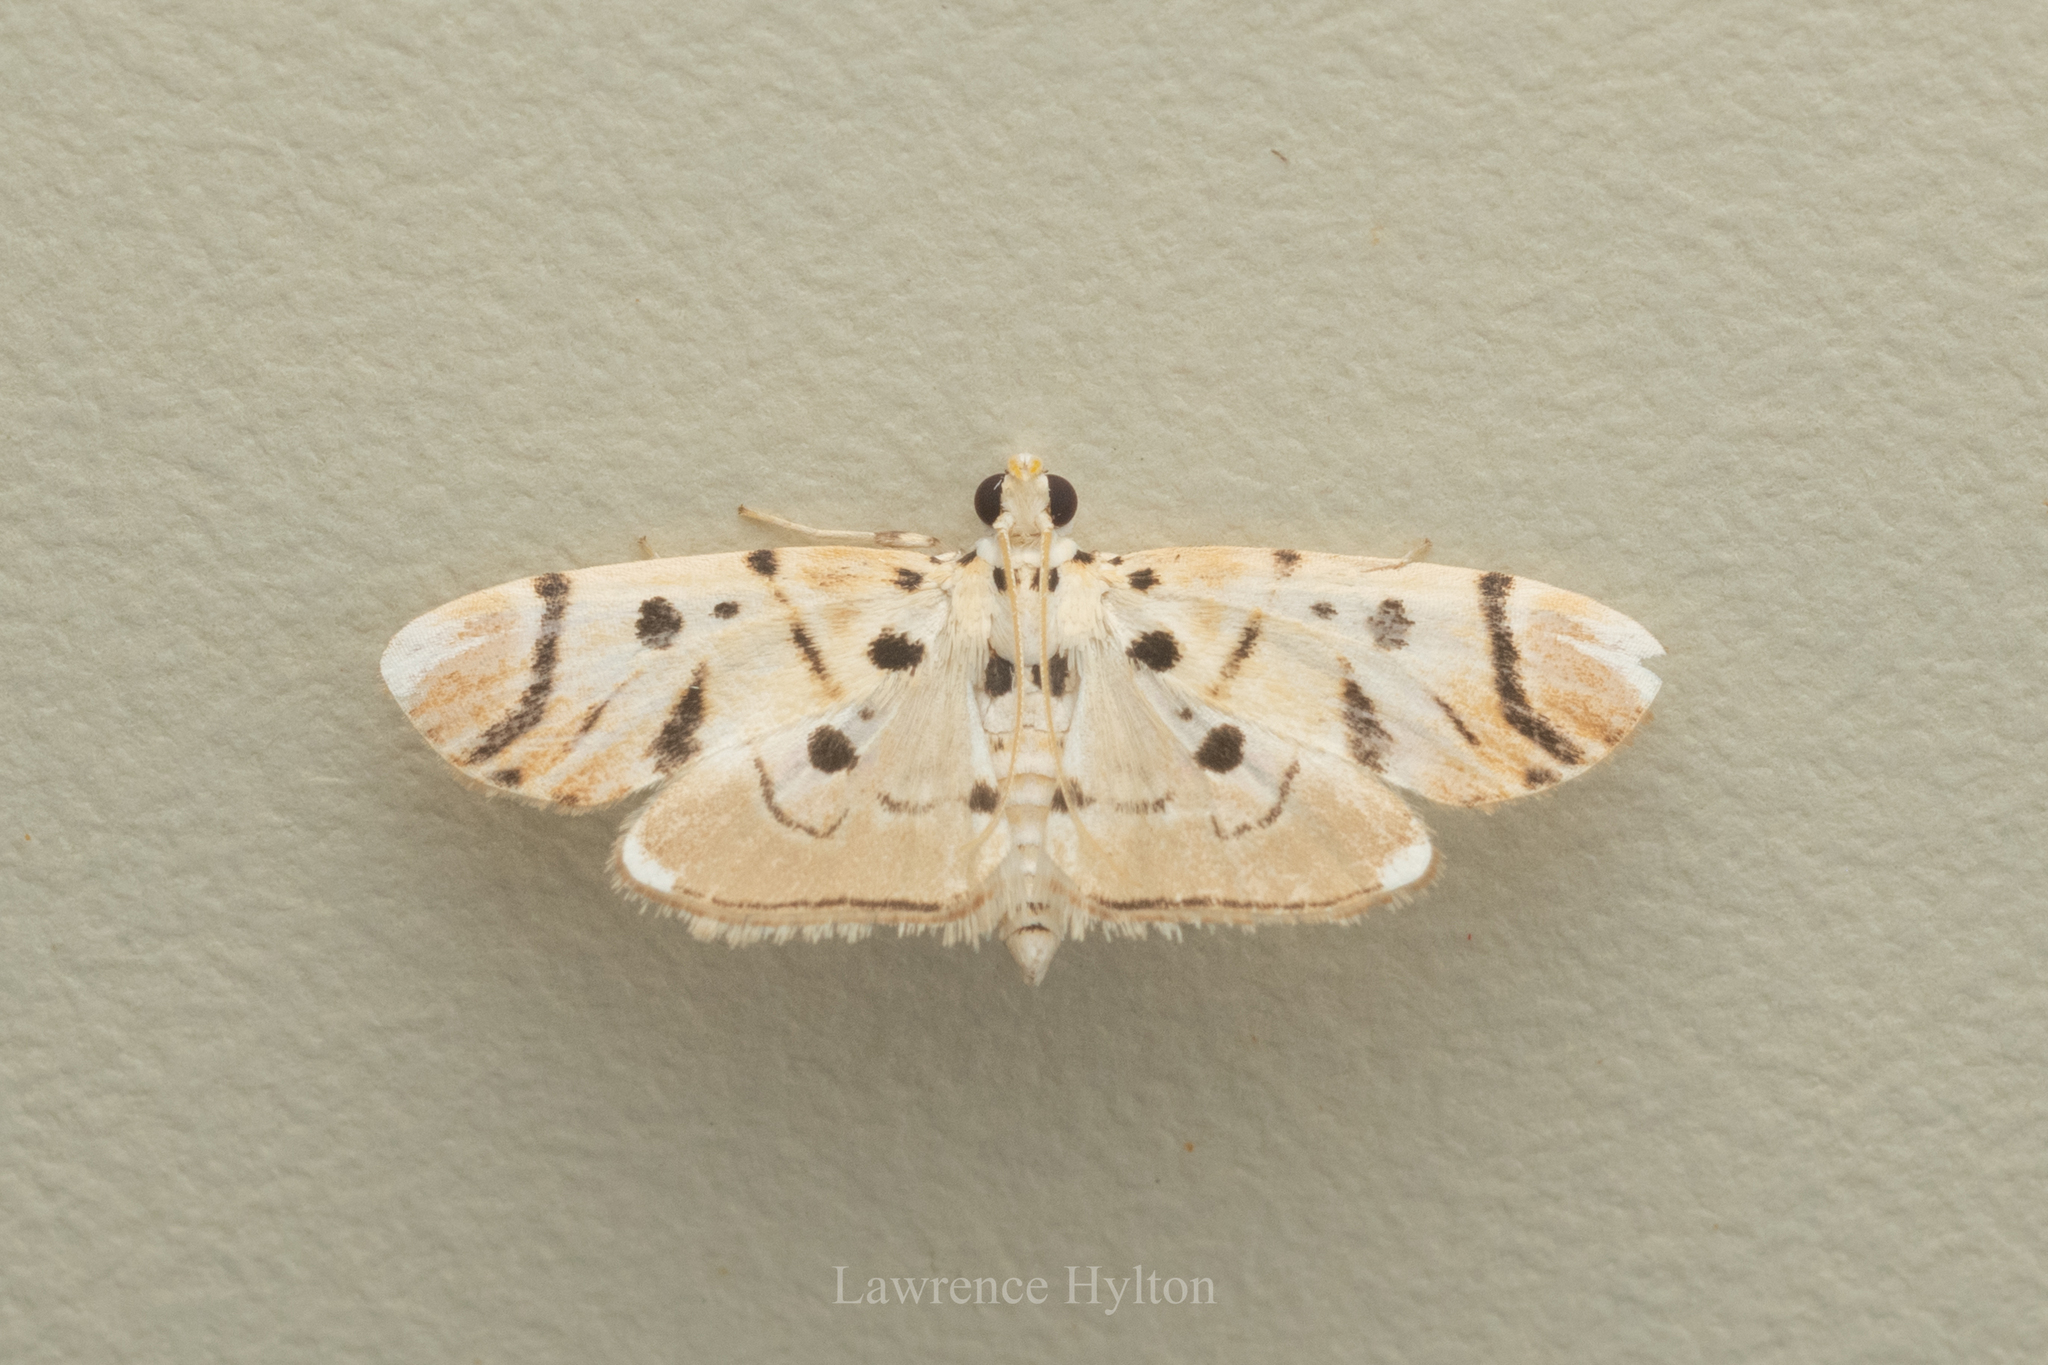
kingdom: Animalia
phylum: Arthropoda
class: Insecta
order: Lepidoptera
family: Crambidae
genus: Pycnarmon
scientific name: Pycnarmon radiata
